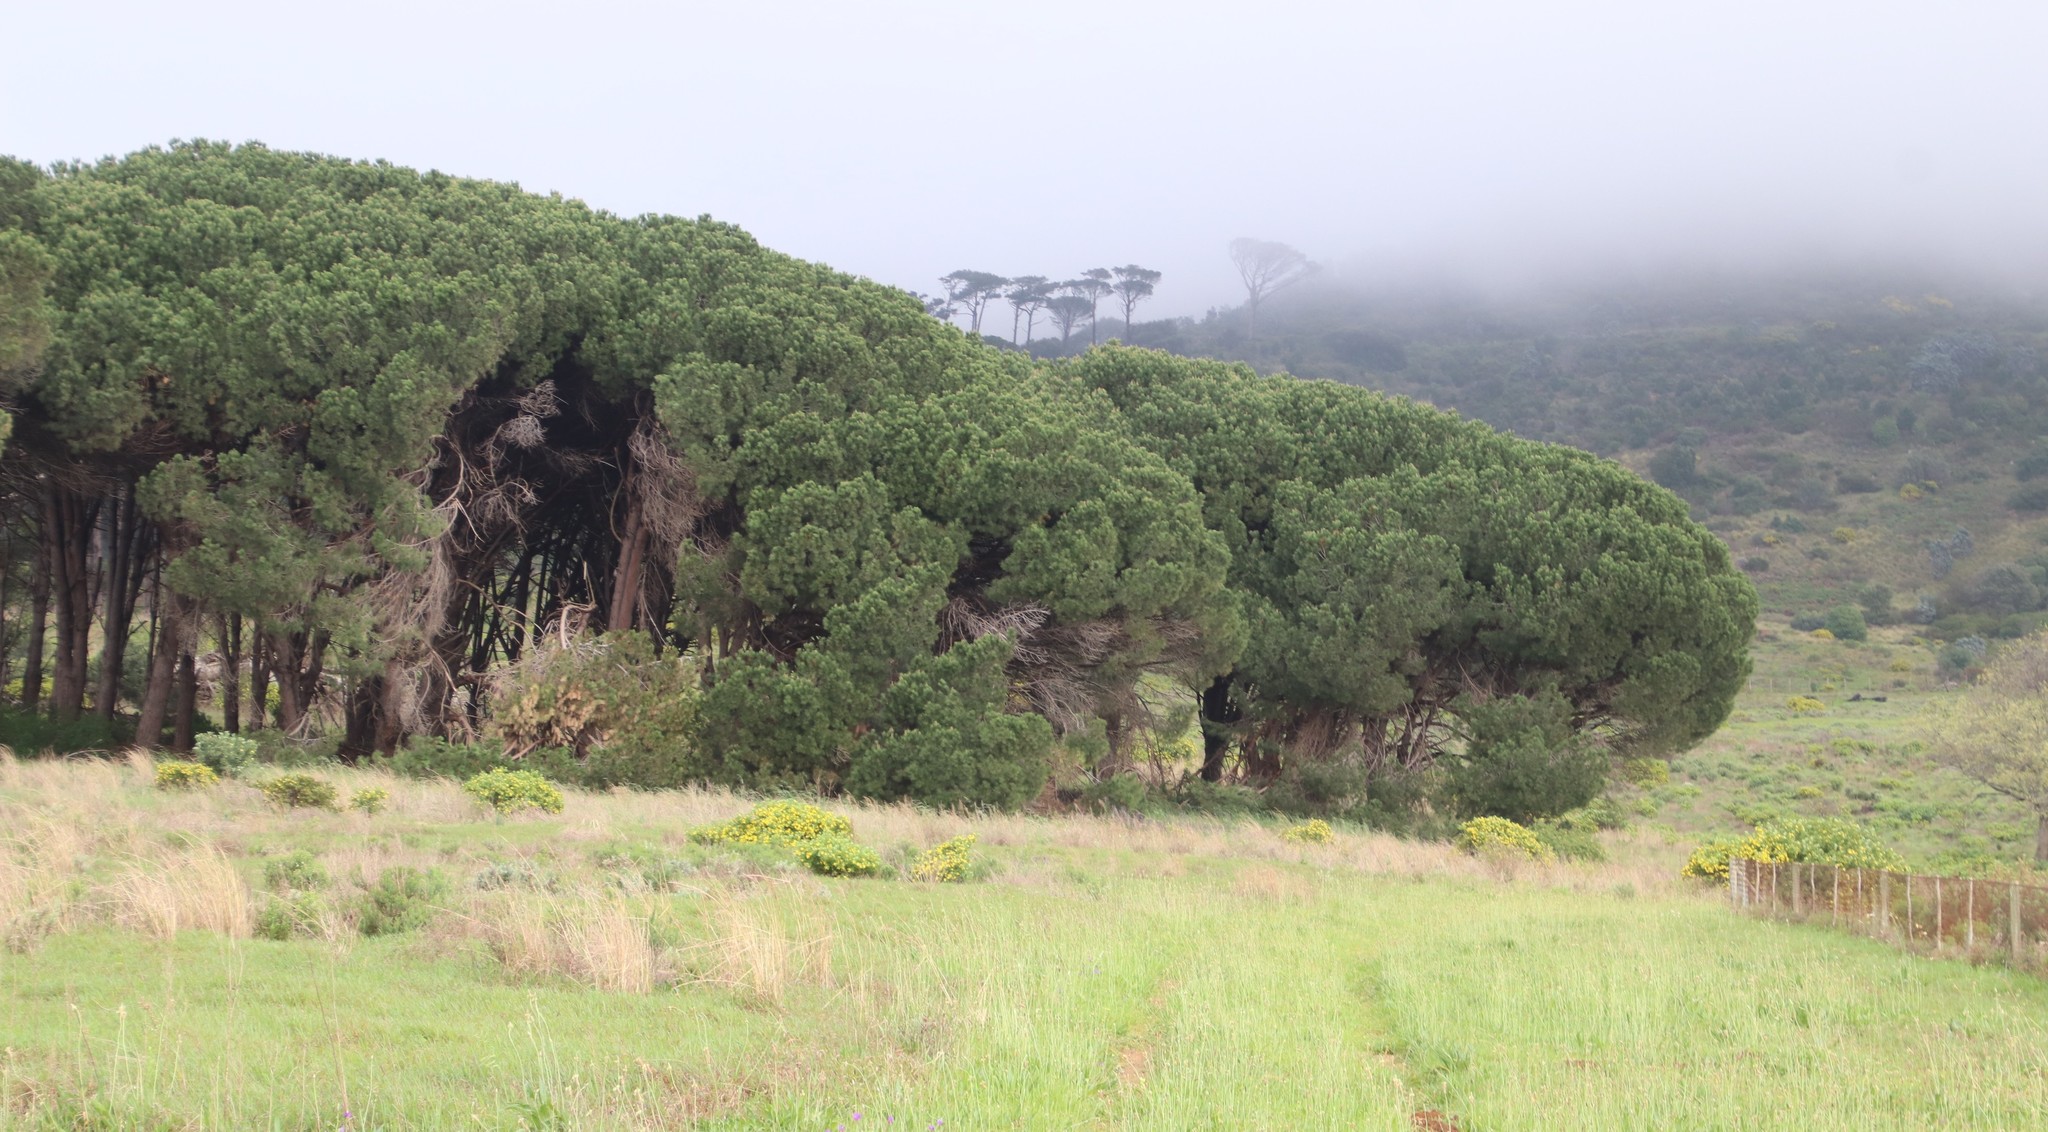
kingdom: Plantae
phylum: Tracheophyta
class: Pinopsida
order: Pinales
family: Pinaceae
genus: Pinus
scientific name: Pinus pinea
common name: Italian stone pine
